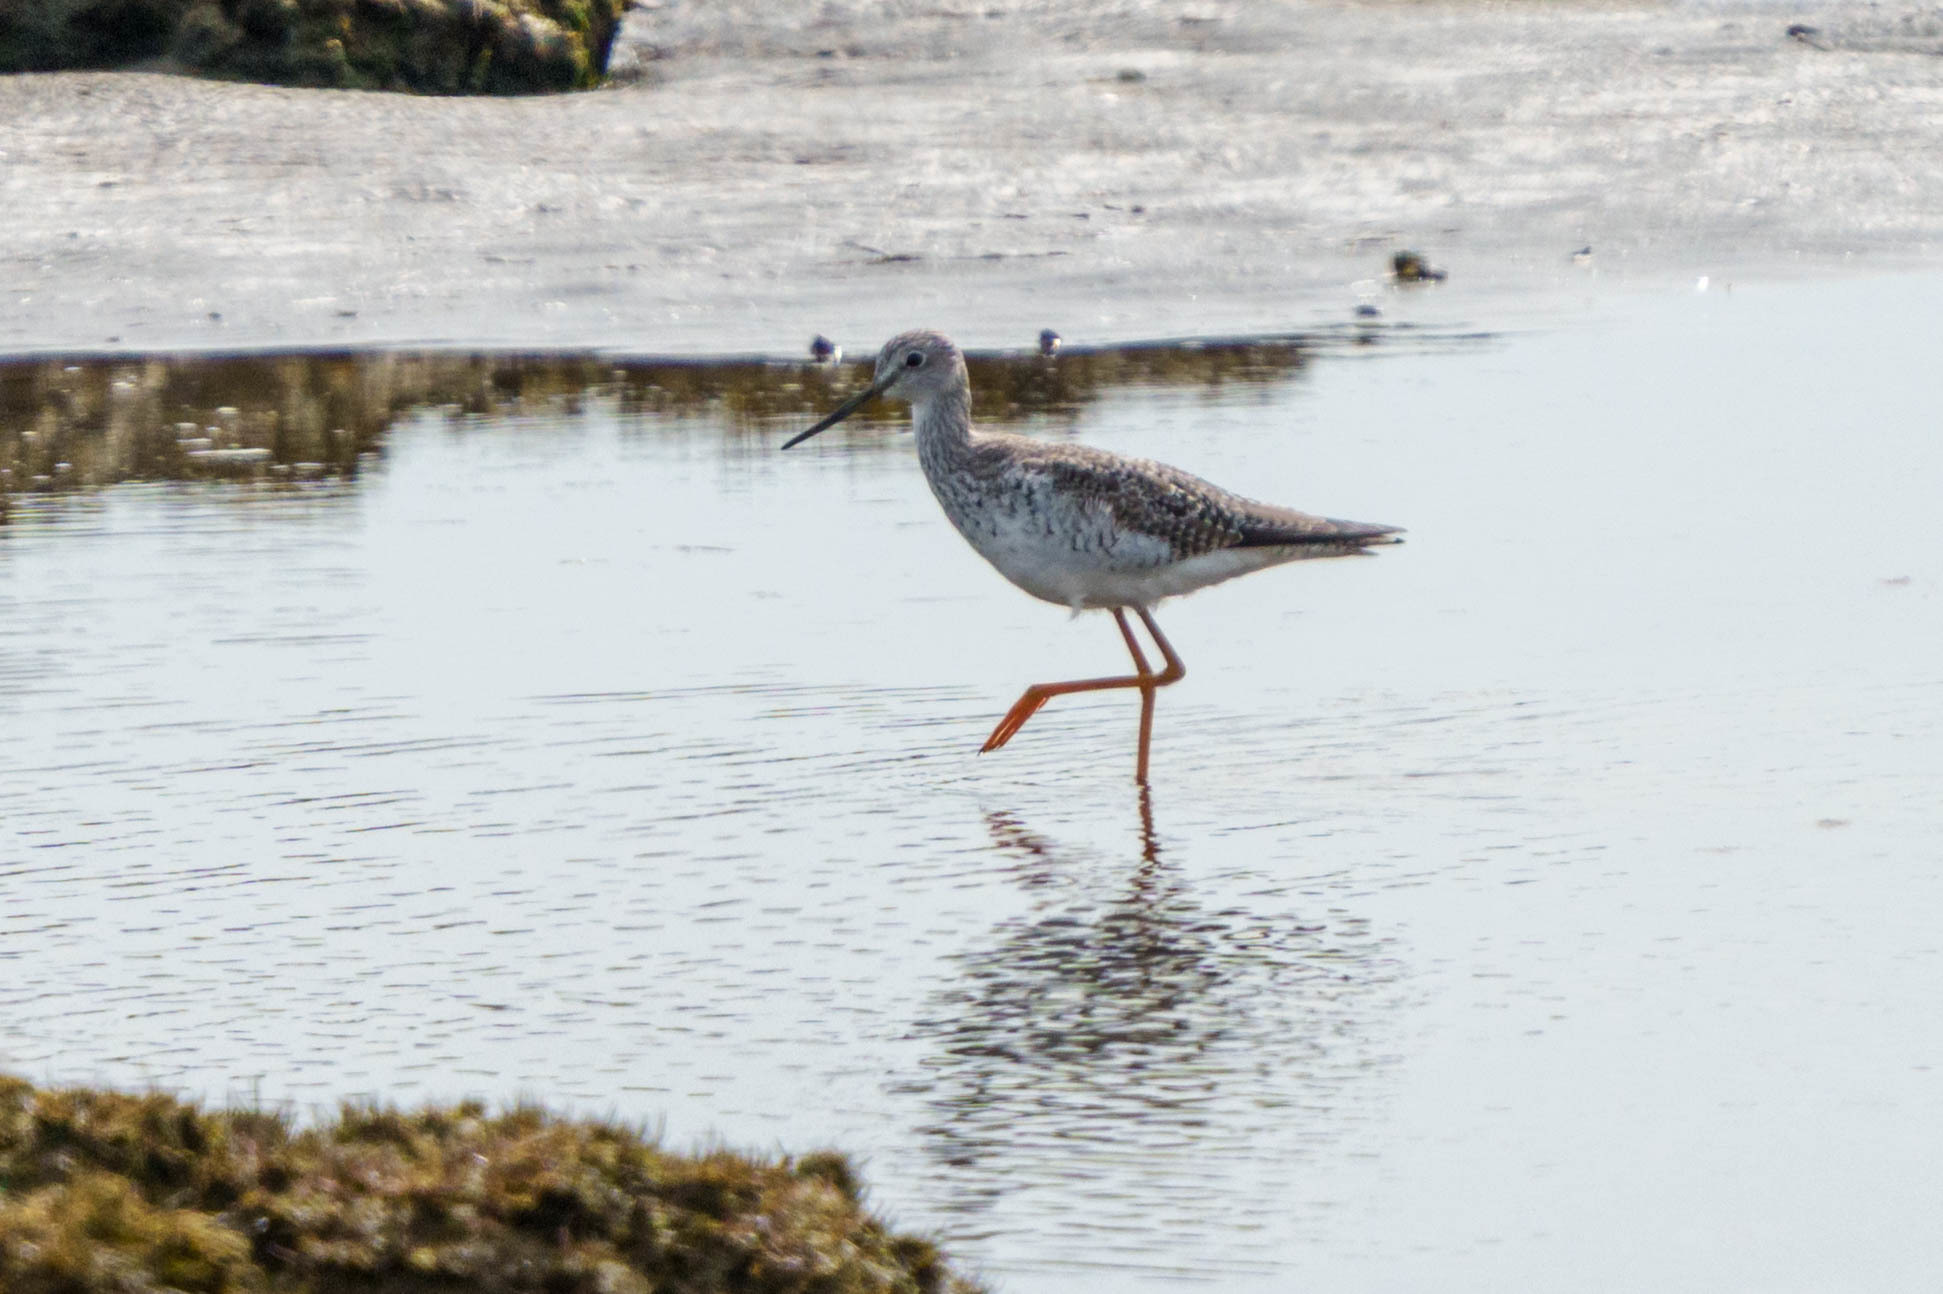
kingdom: Animalia
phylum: Chordata
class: Aves
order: Charadriiformes
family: Scolopacidae
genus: Tringa
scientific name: Tringa melanoleuca
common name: Greater yellowlegs
